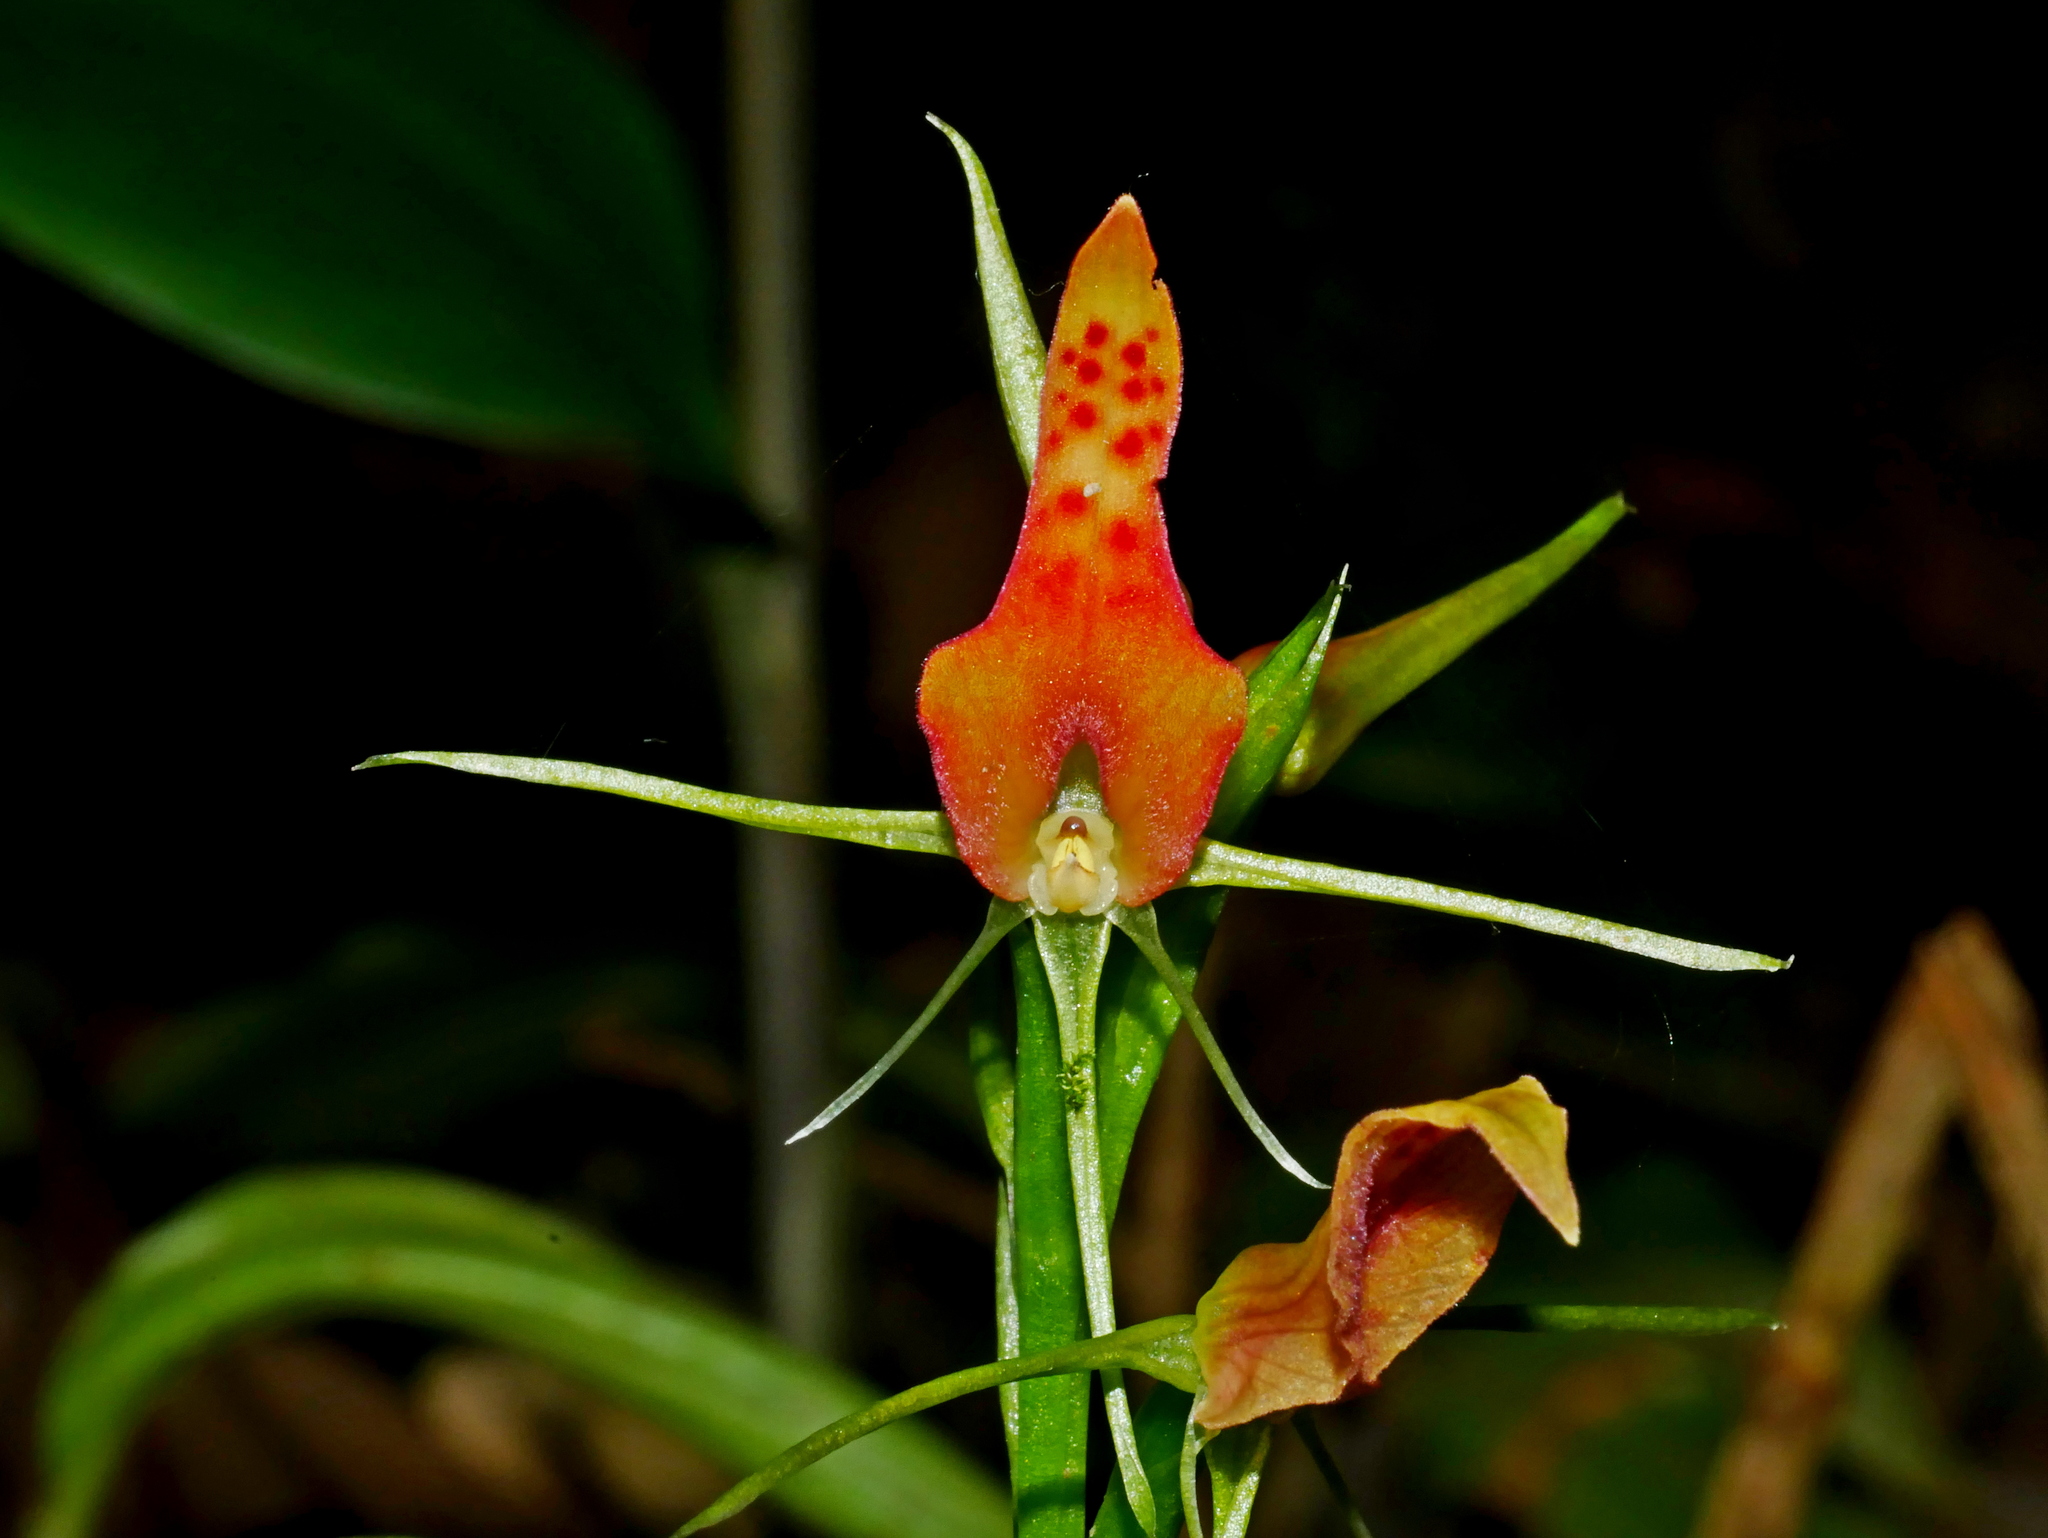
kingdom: Plantae
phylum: Tracheophyta
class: Liliopsida
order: Asparagales
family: Orchidaceae
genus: Cryptostylis
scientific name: Cryptostylis arachnites
